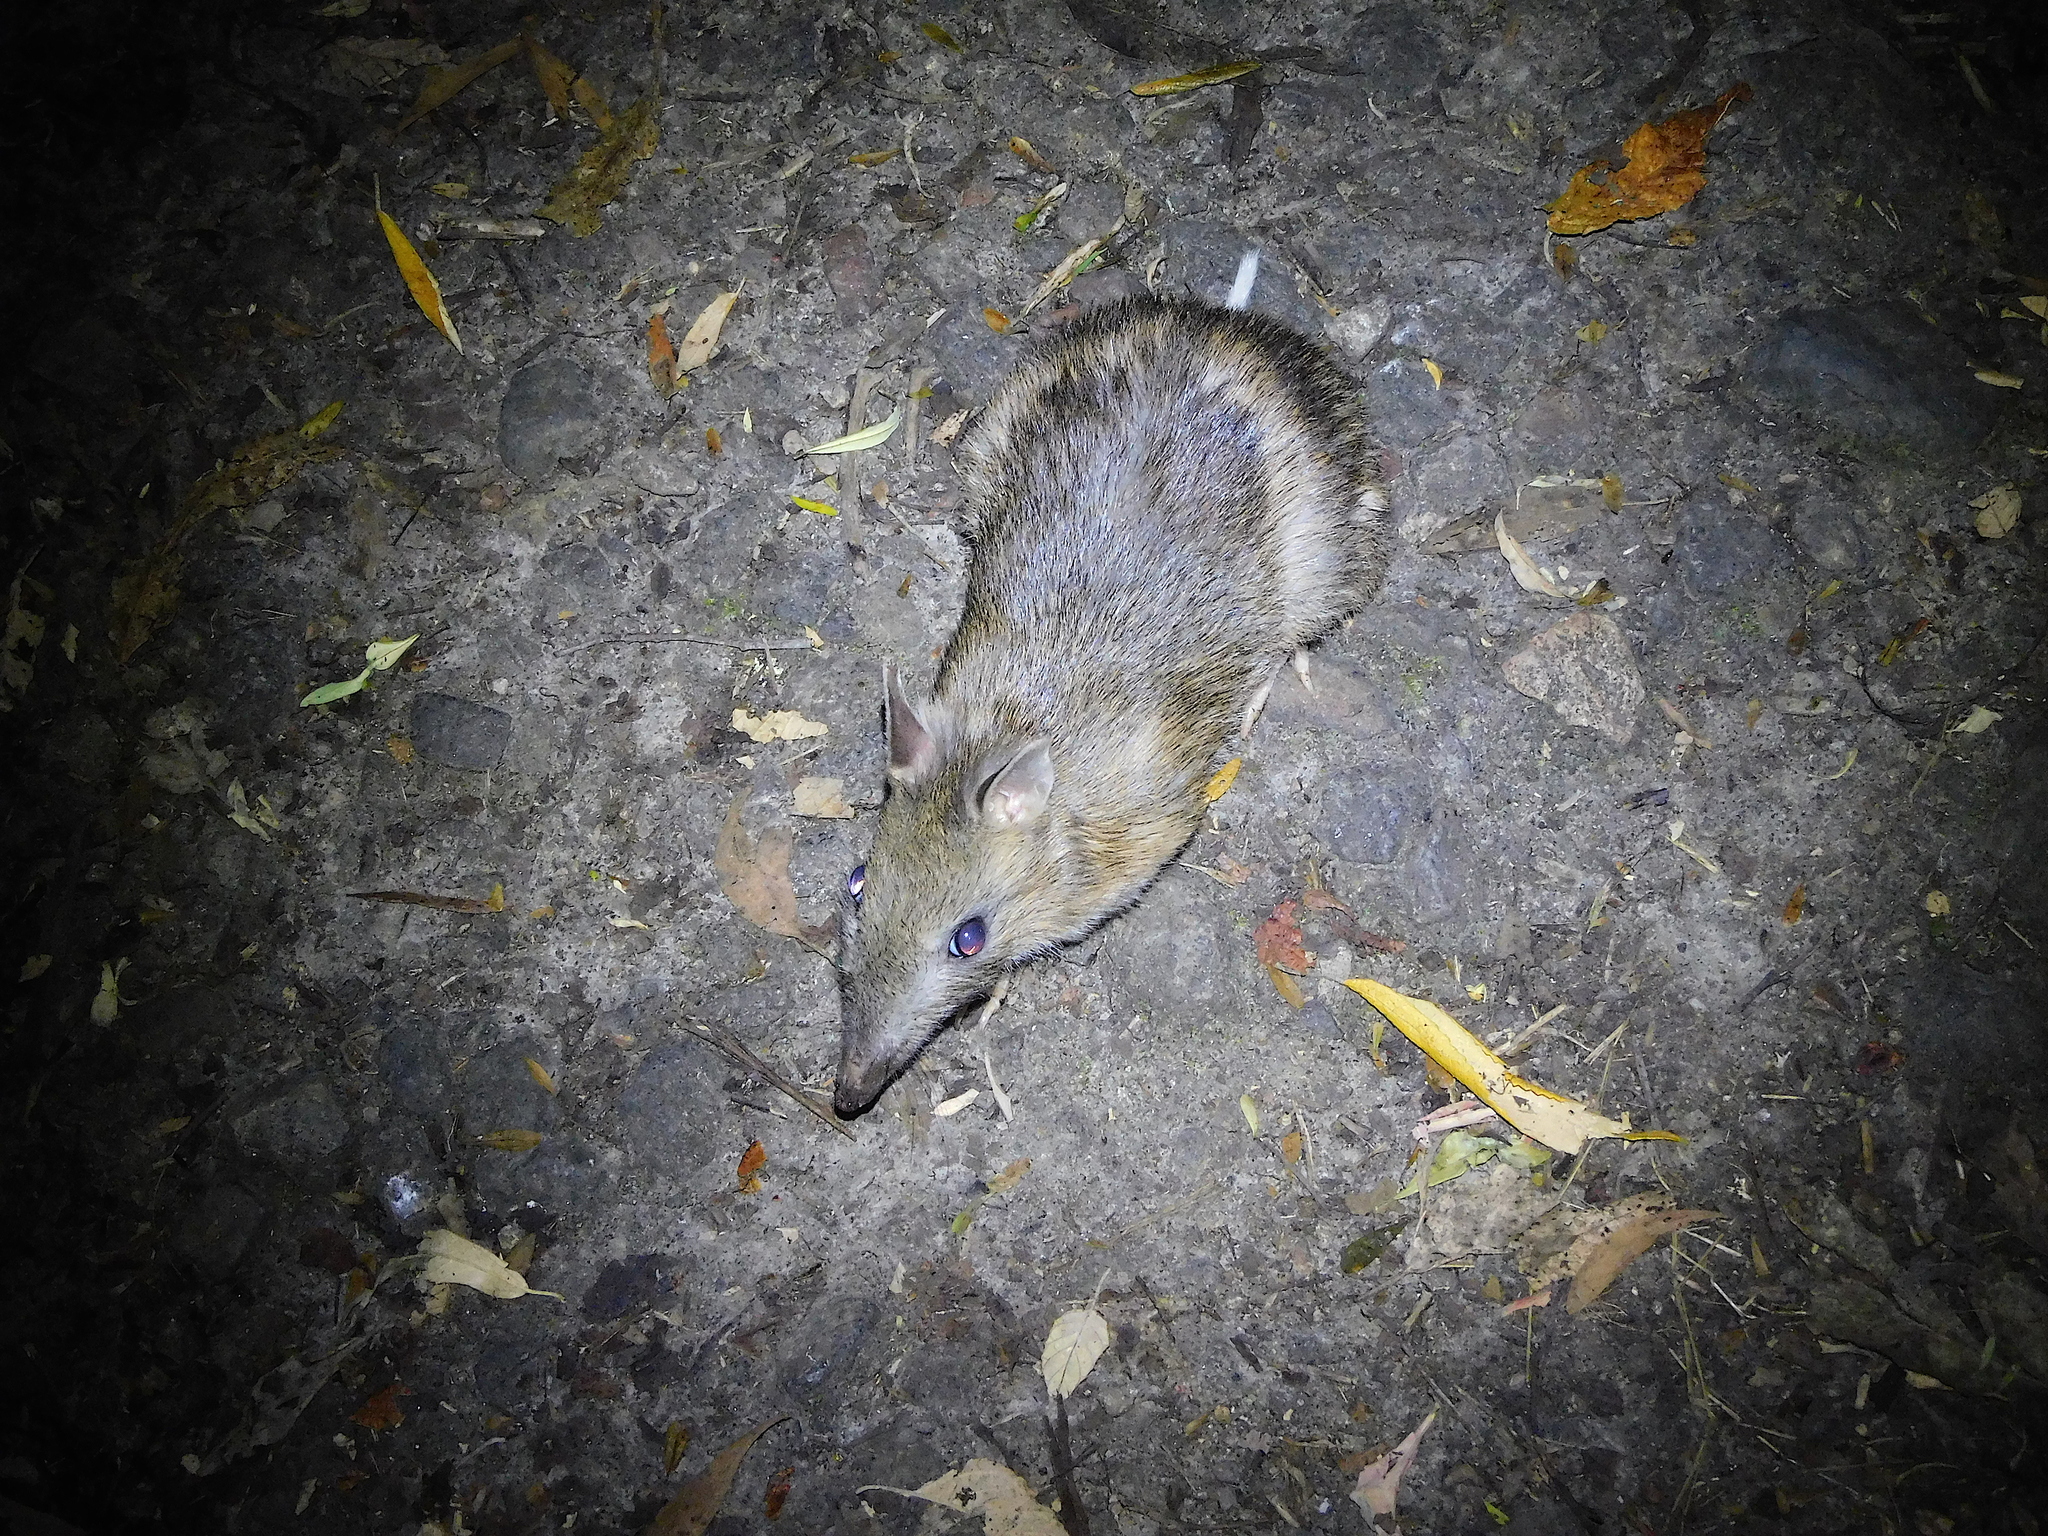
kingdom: Animalia
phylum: Chordata
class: Mammalia
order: Peramelemorphia
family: Peramelidae
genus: Perameles
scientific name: Perameles gunnii
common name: Eastern barred bandicoot
